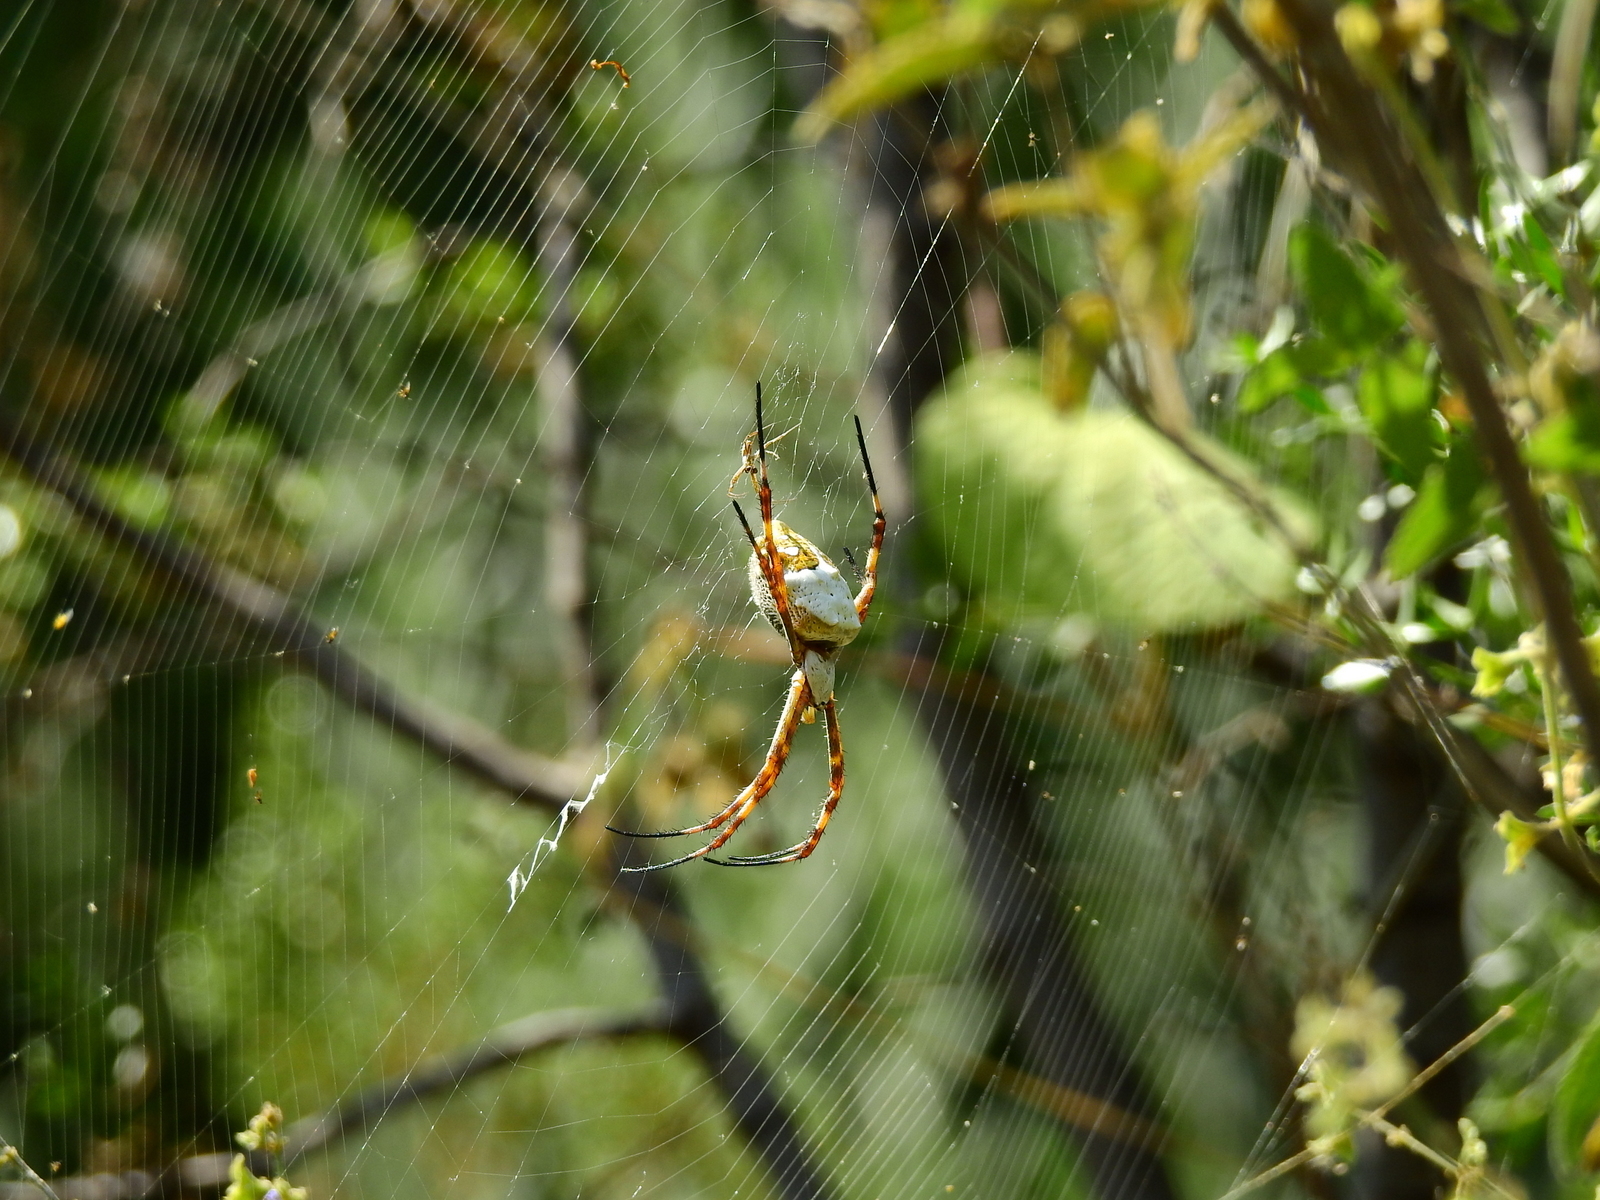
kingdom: Animalia
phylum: Arthropoda
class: Arachnida
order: Araneae
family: Araneidae
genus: Argiope
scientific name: Argiope argentata
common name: Orb weavers
